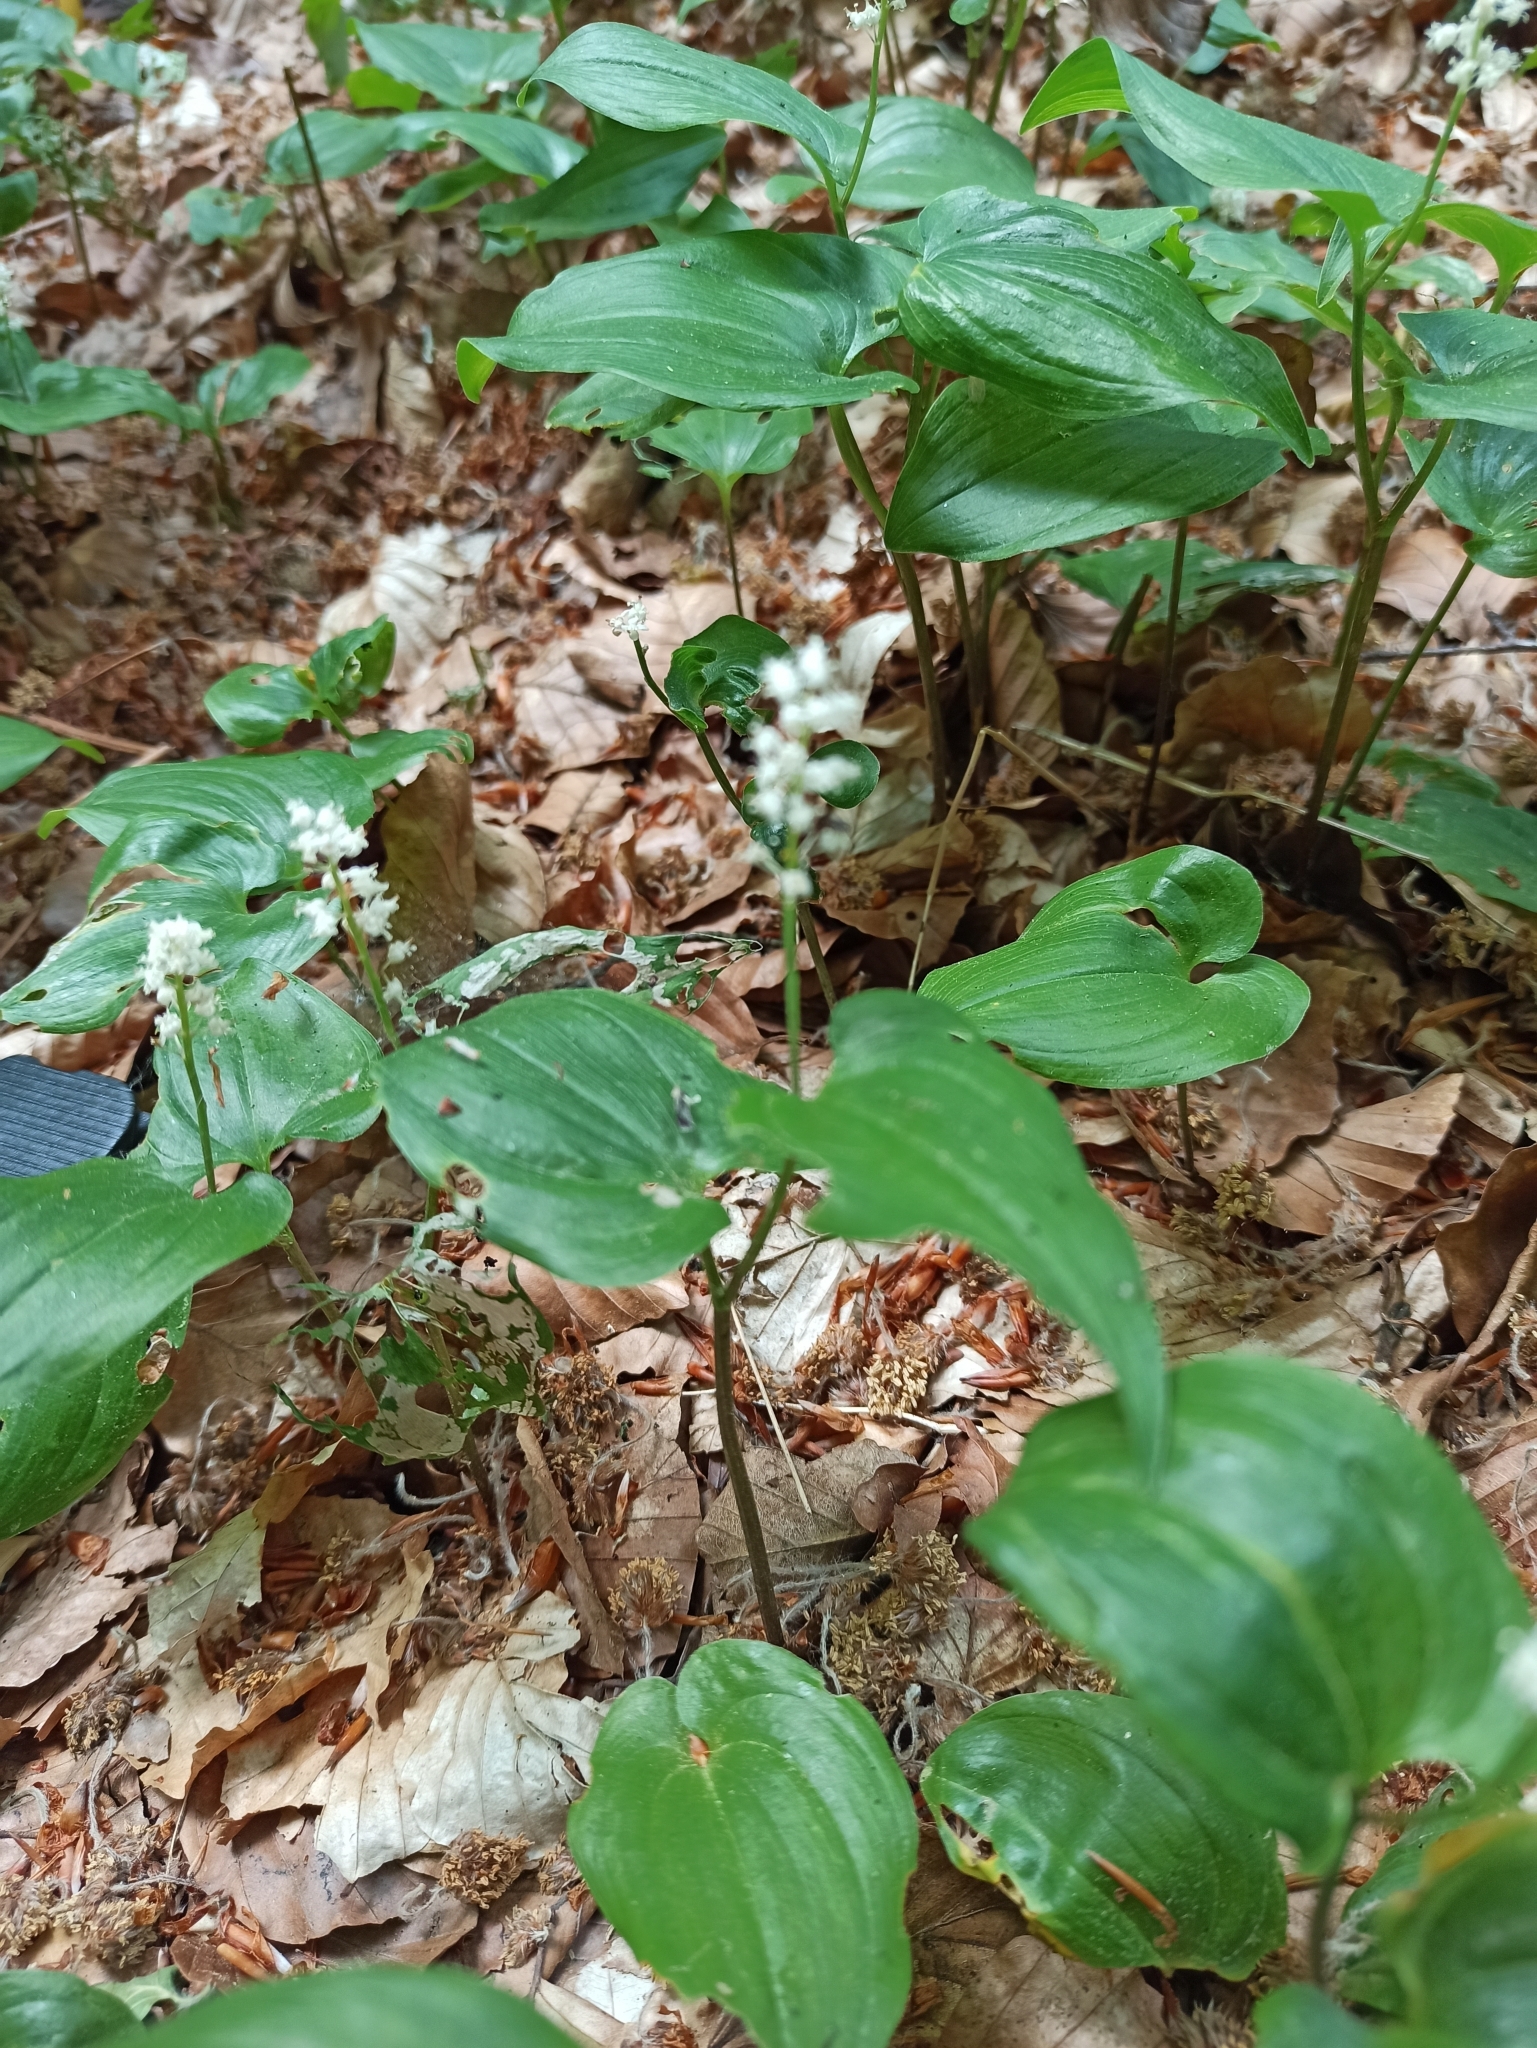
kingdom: Plantae
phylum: Tracheophyta
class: Liliopsida
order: Asparagales
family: Asparagaceae
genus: Maianthemum
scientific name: Maianthemum bifolium
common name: May lily
